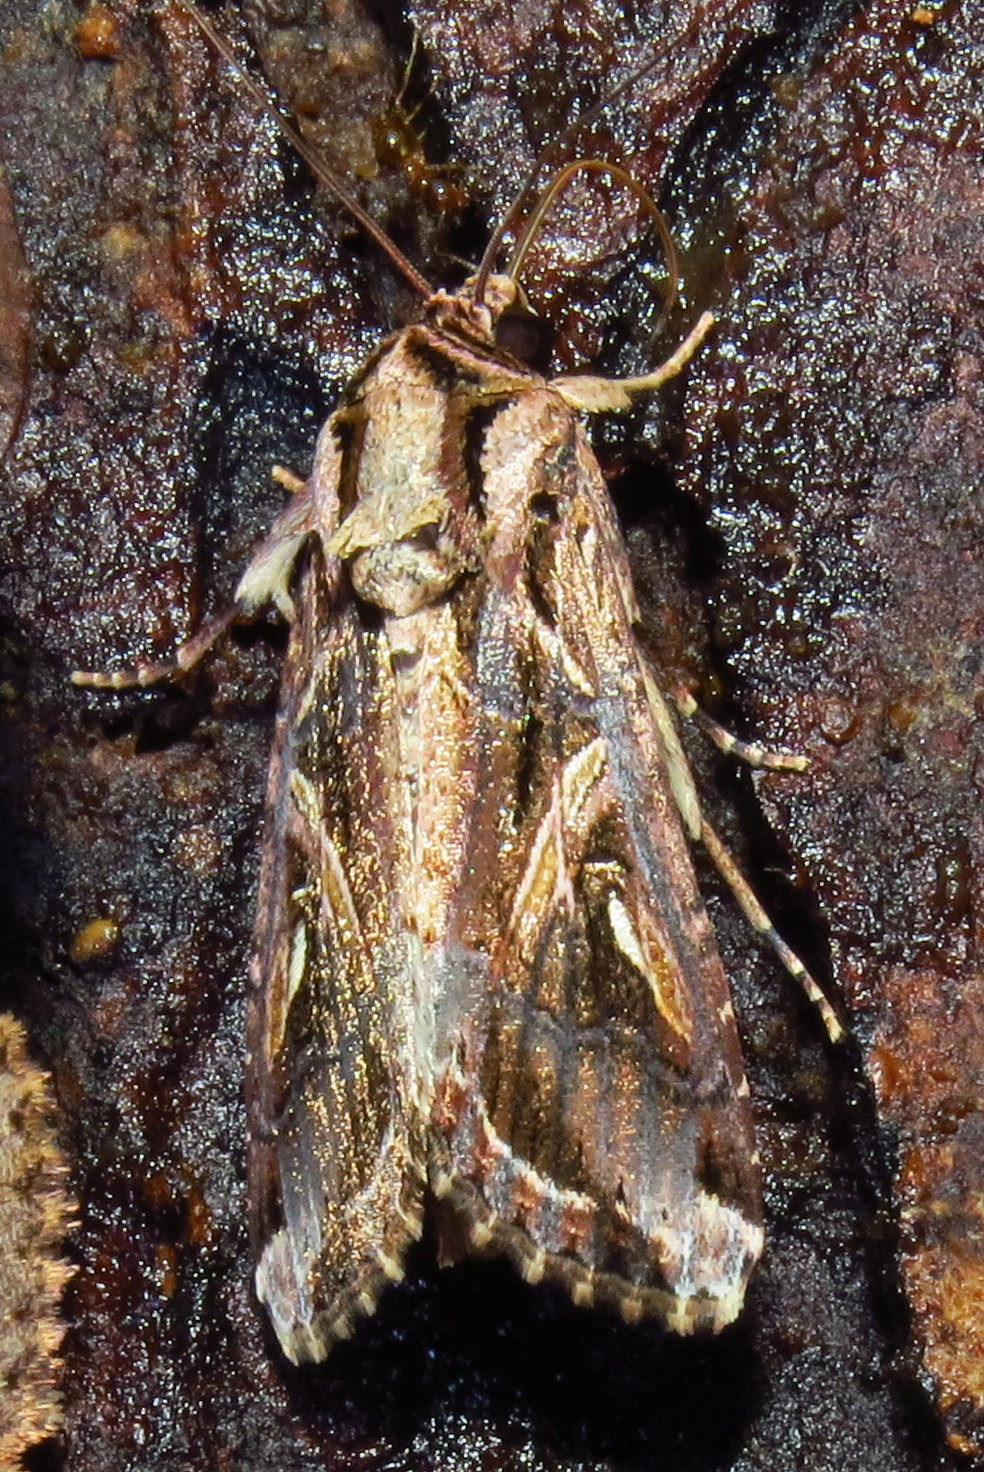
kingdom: Animalia
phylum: Arthropoda
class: Insecta
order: Lepidoptera
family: Noctuidae
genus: Spodoptera
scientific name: Spodoptera dolichos
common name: Sweetpotato armyworm
